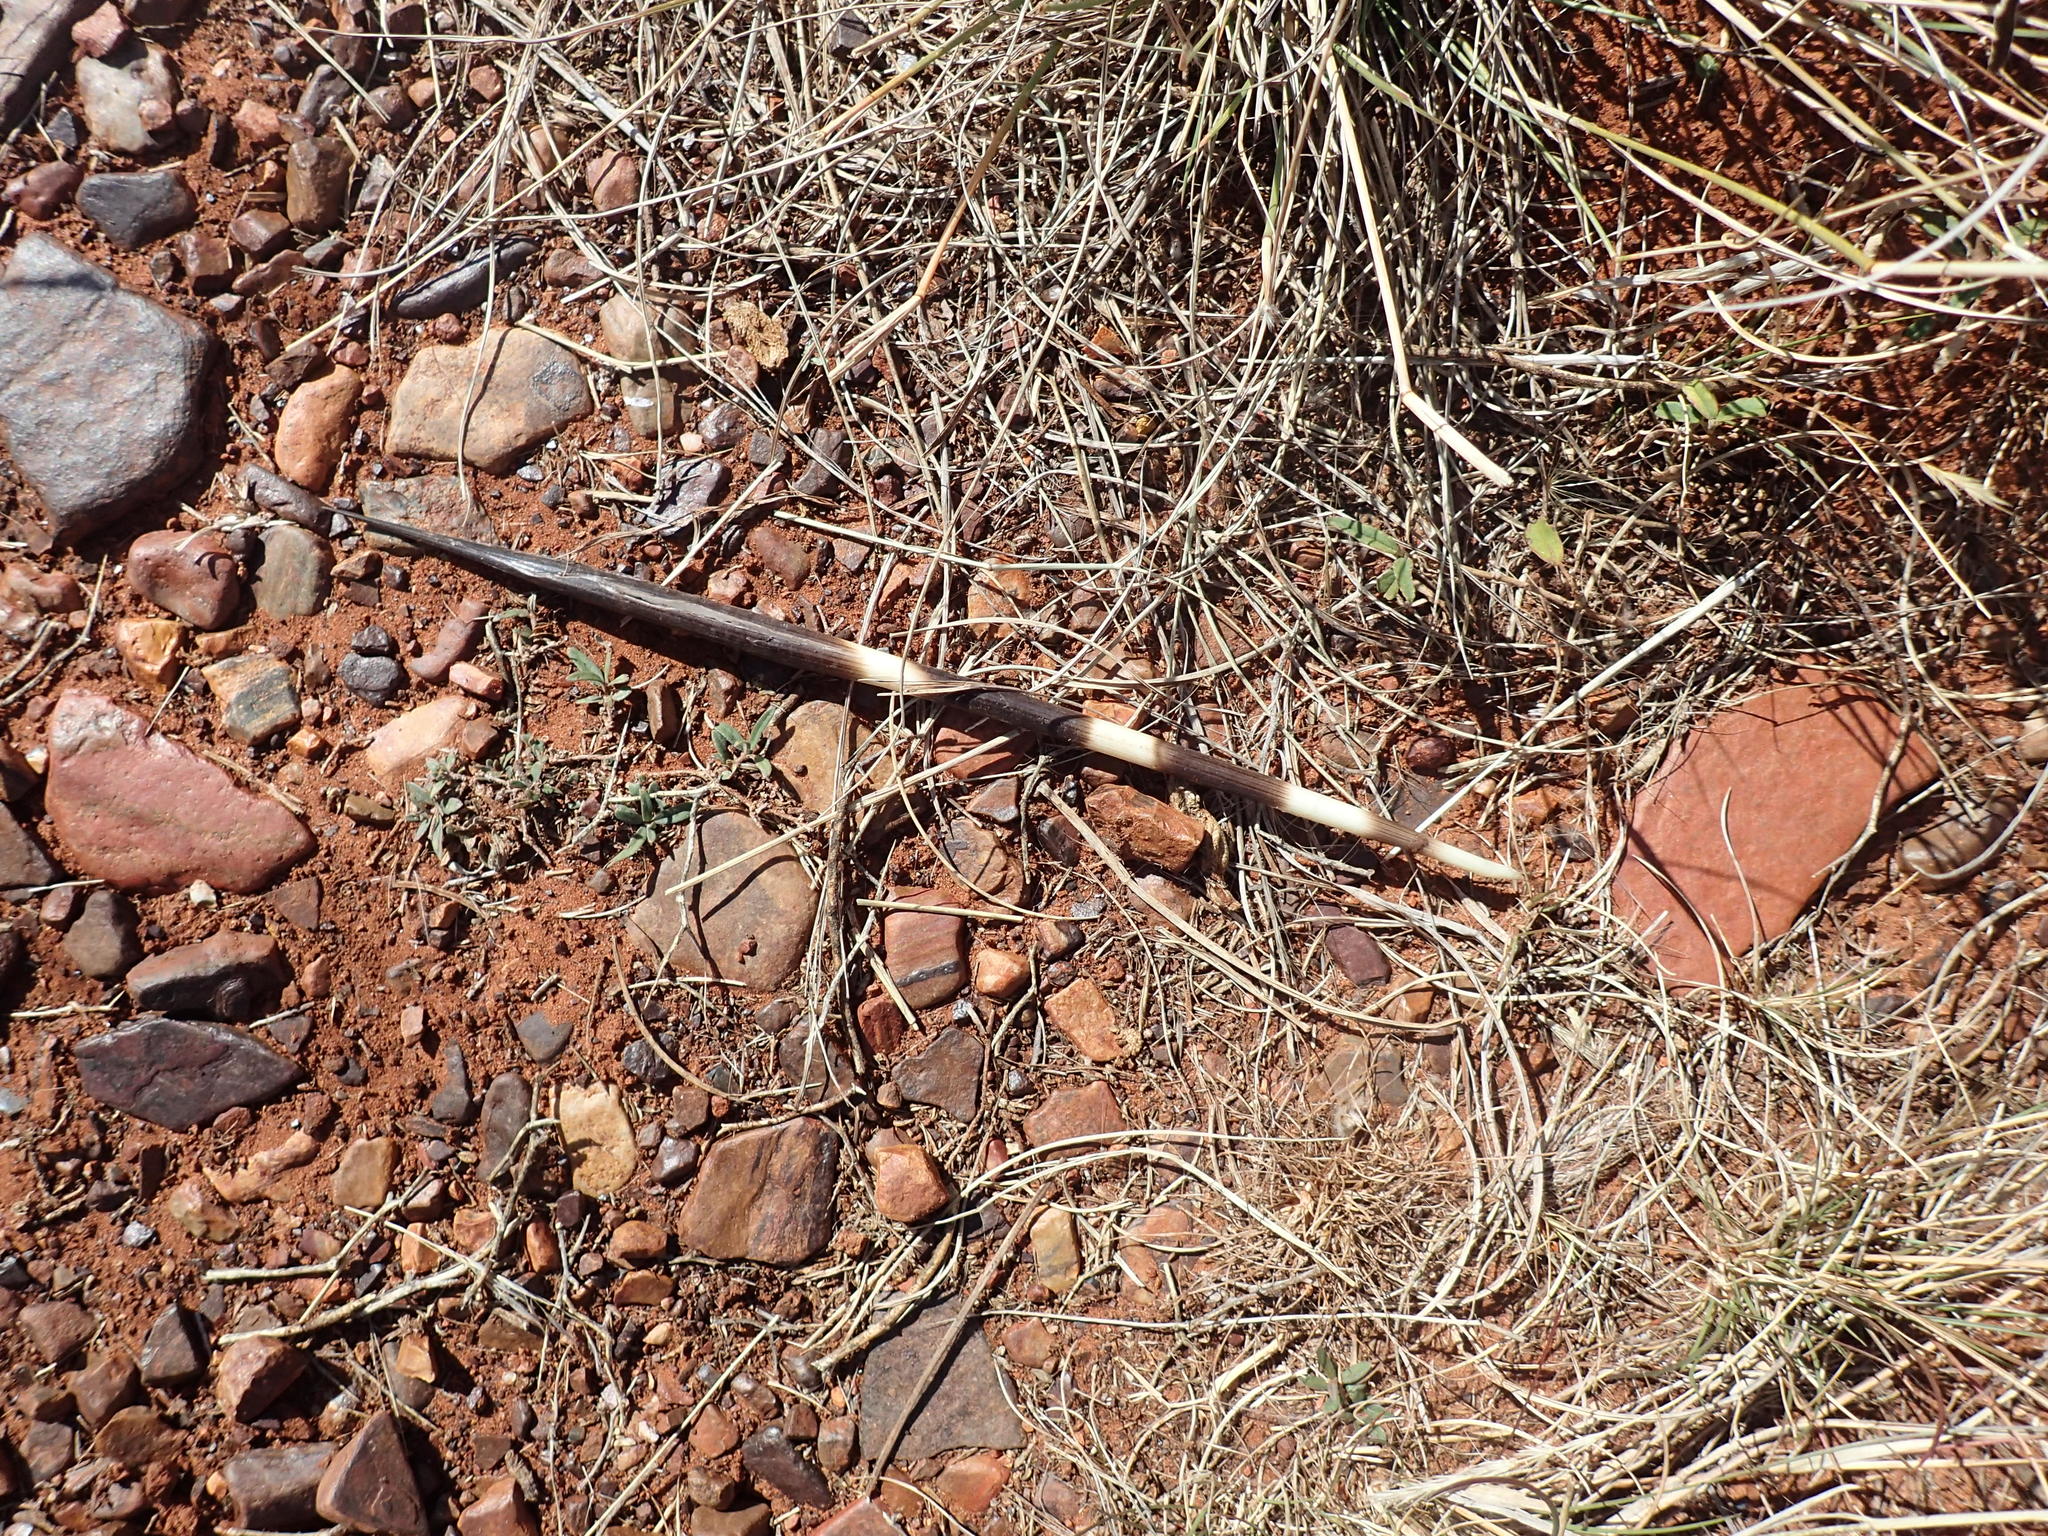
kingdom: Animalia
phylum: Chordata
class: Mammalia
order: Rodentia
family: Hystricidae
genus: Hystrix
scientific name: Hystrix africaeaustralis
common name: Cape porcupine
